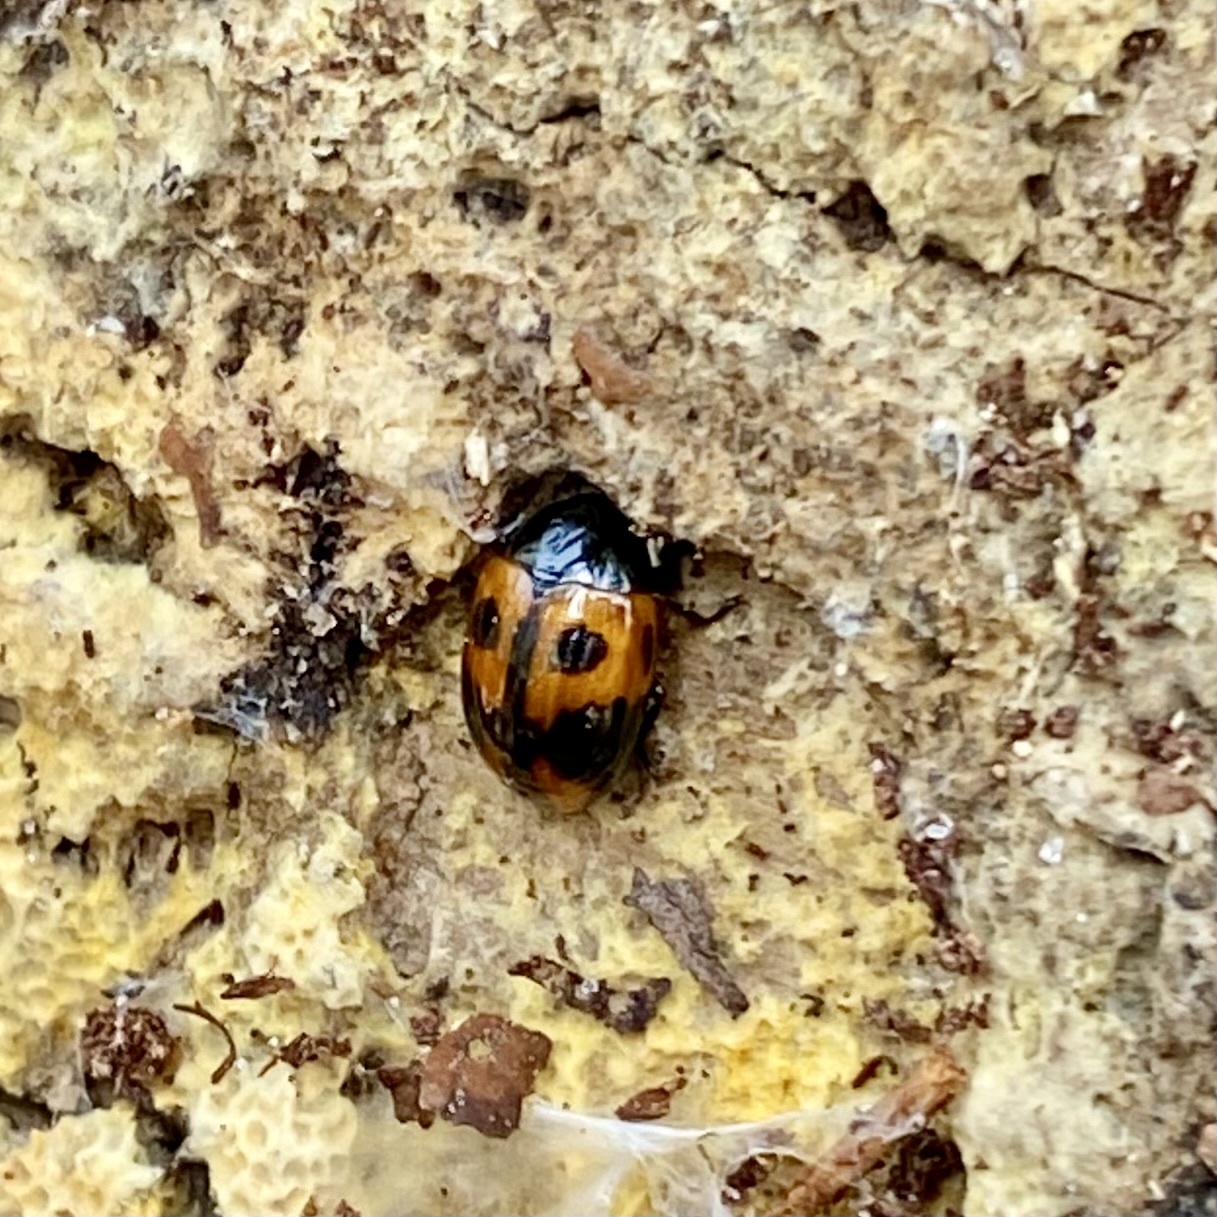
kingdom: Animalia
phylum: Arthropoda
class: Insecta
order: Coleoptera
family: Tenebrionidae
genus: Diaperis
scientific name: Diaperis maculata
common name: Darkling beetle
